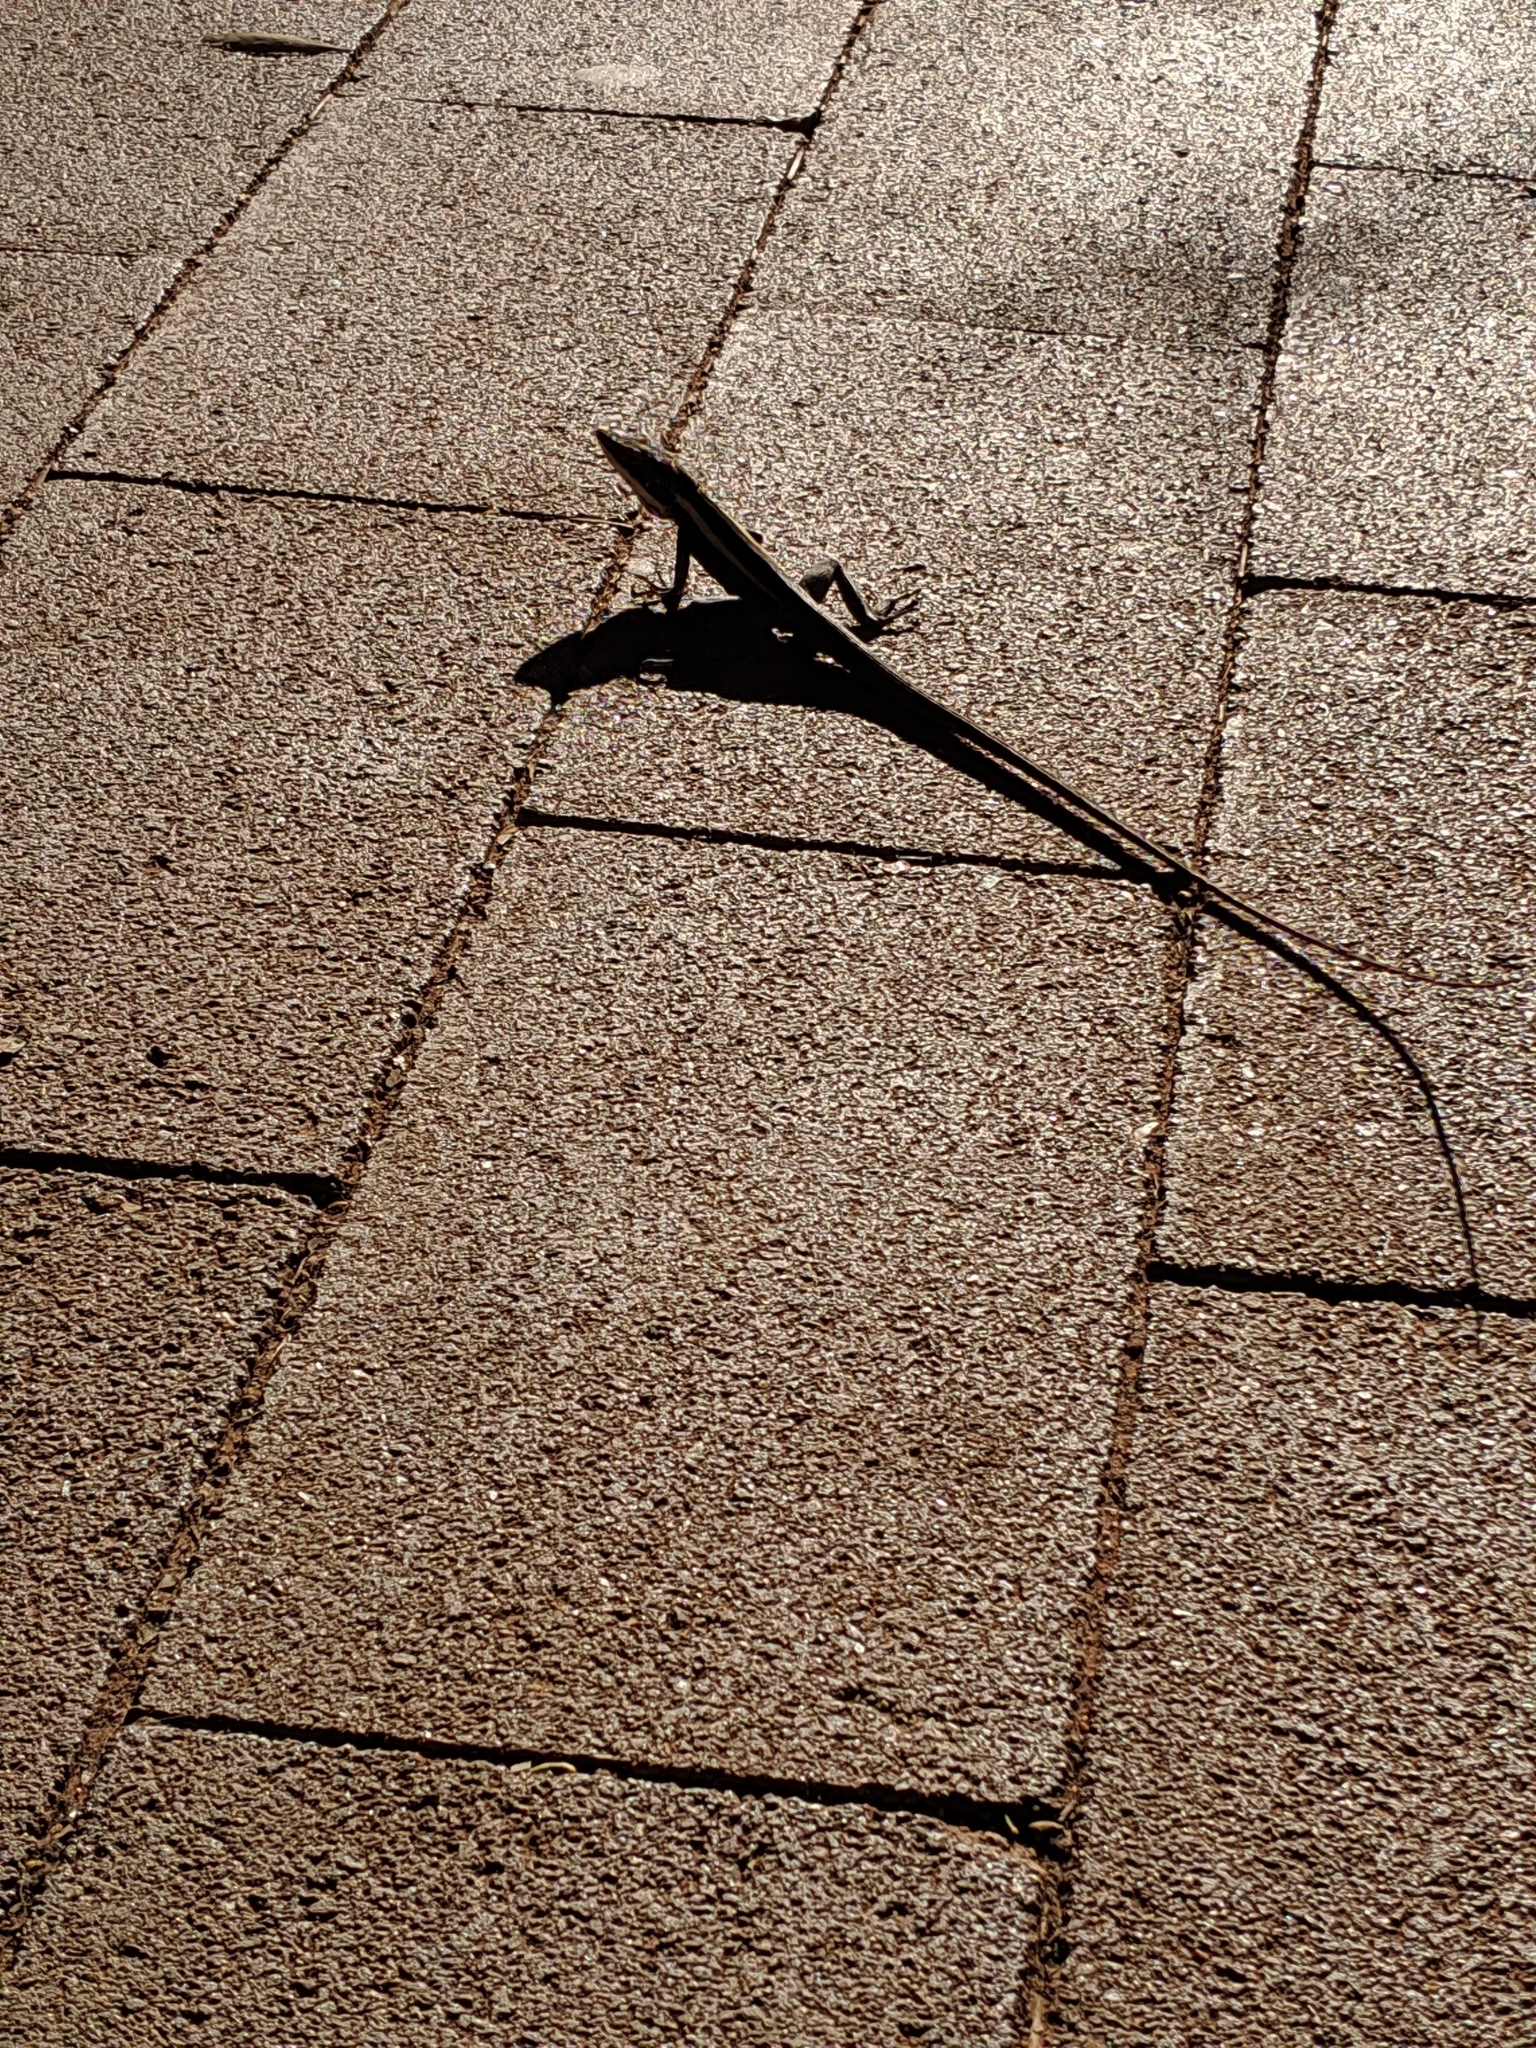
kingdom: Animalia
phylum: Chordata
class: Squamata
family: Agamidae
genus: Gowidon
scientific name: Gowidon longirostris
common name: Long-nosed water dragon
